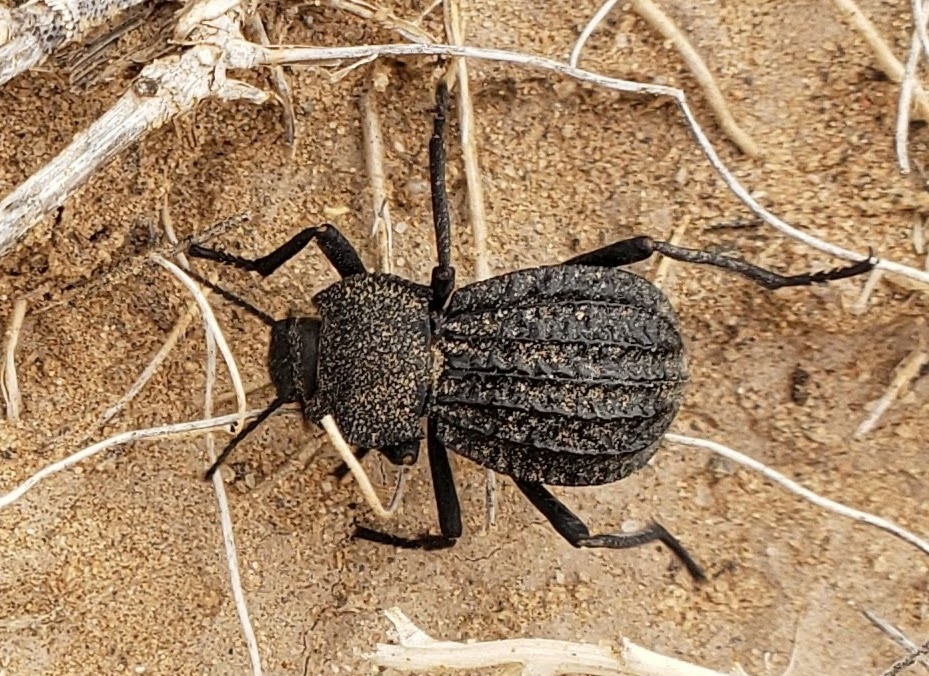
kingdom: Animalia
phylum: Arthropoda
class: Insecta
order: Coleoptera
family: Tenebrionidae
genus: Philolithus
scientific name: Philolithus sordidus
